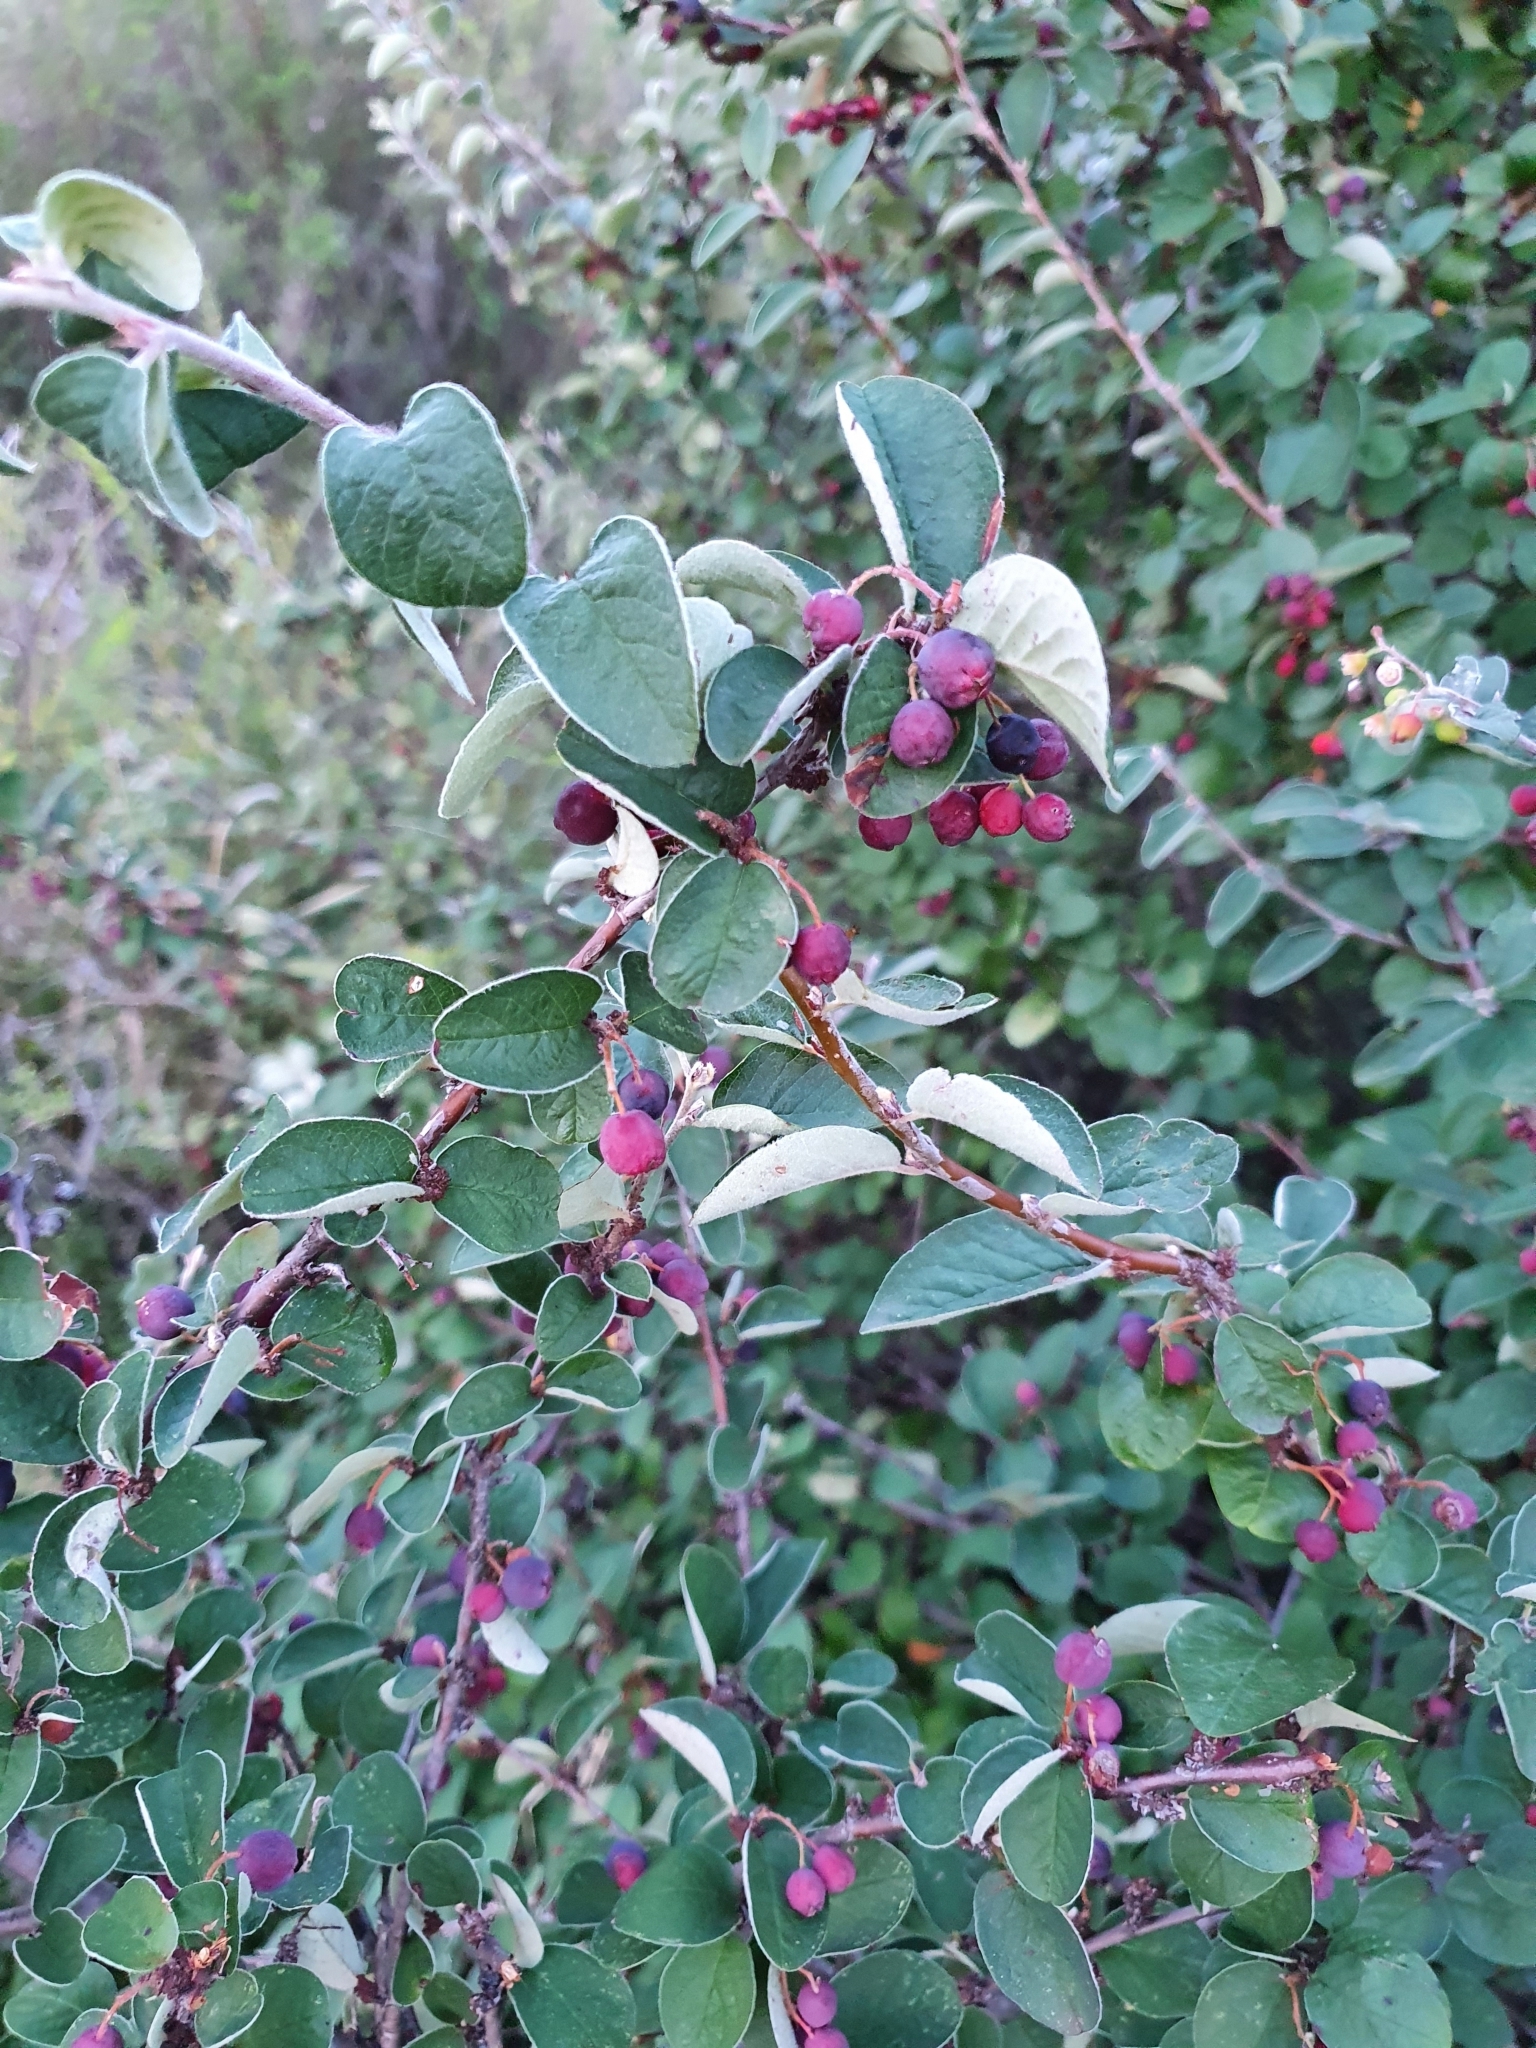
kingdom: Plantae
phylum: Tracheophyta
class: Magnoliopsida
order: Rosales
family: Rosaceae
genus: Cotoneaster
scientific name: Cotoneaster melanocarpus
